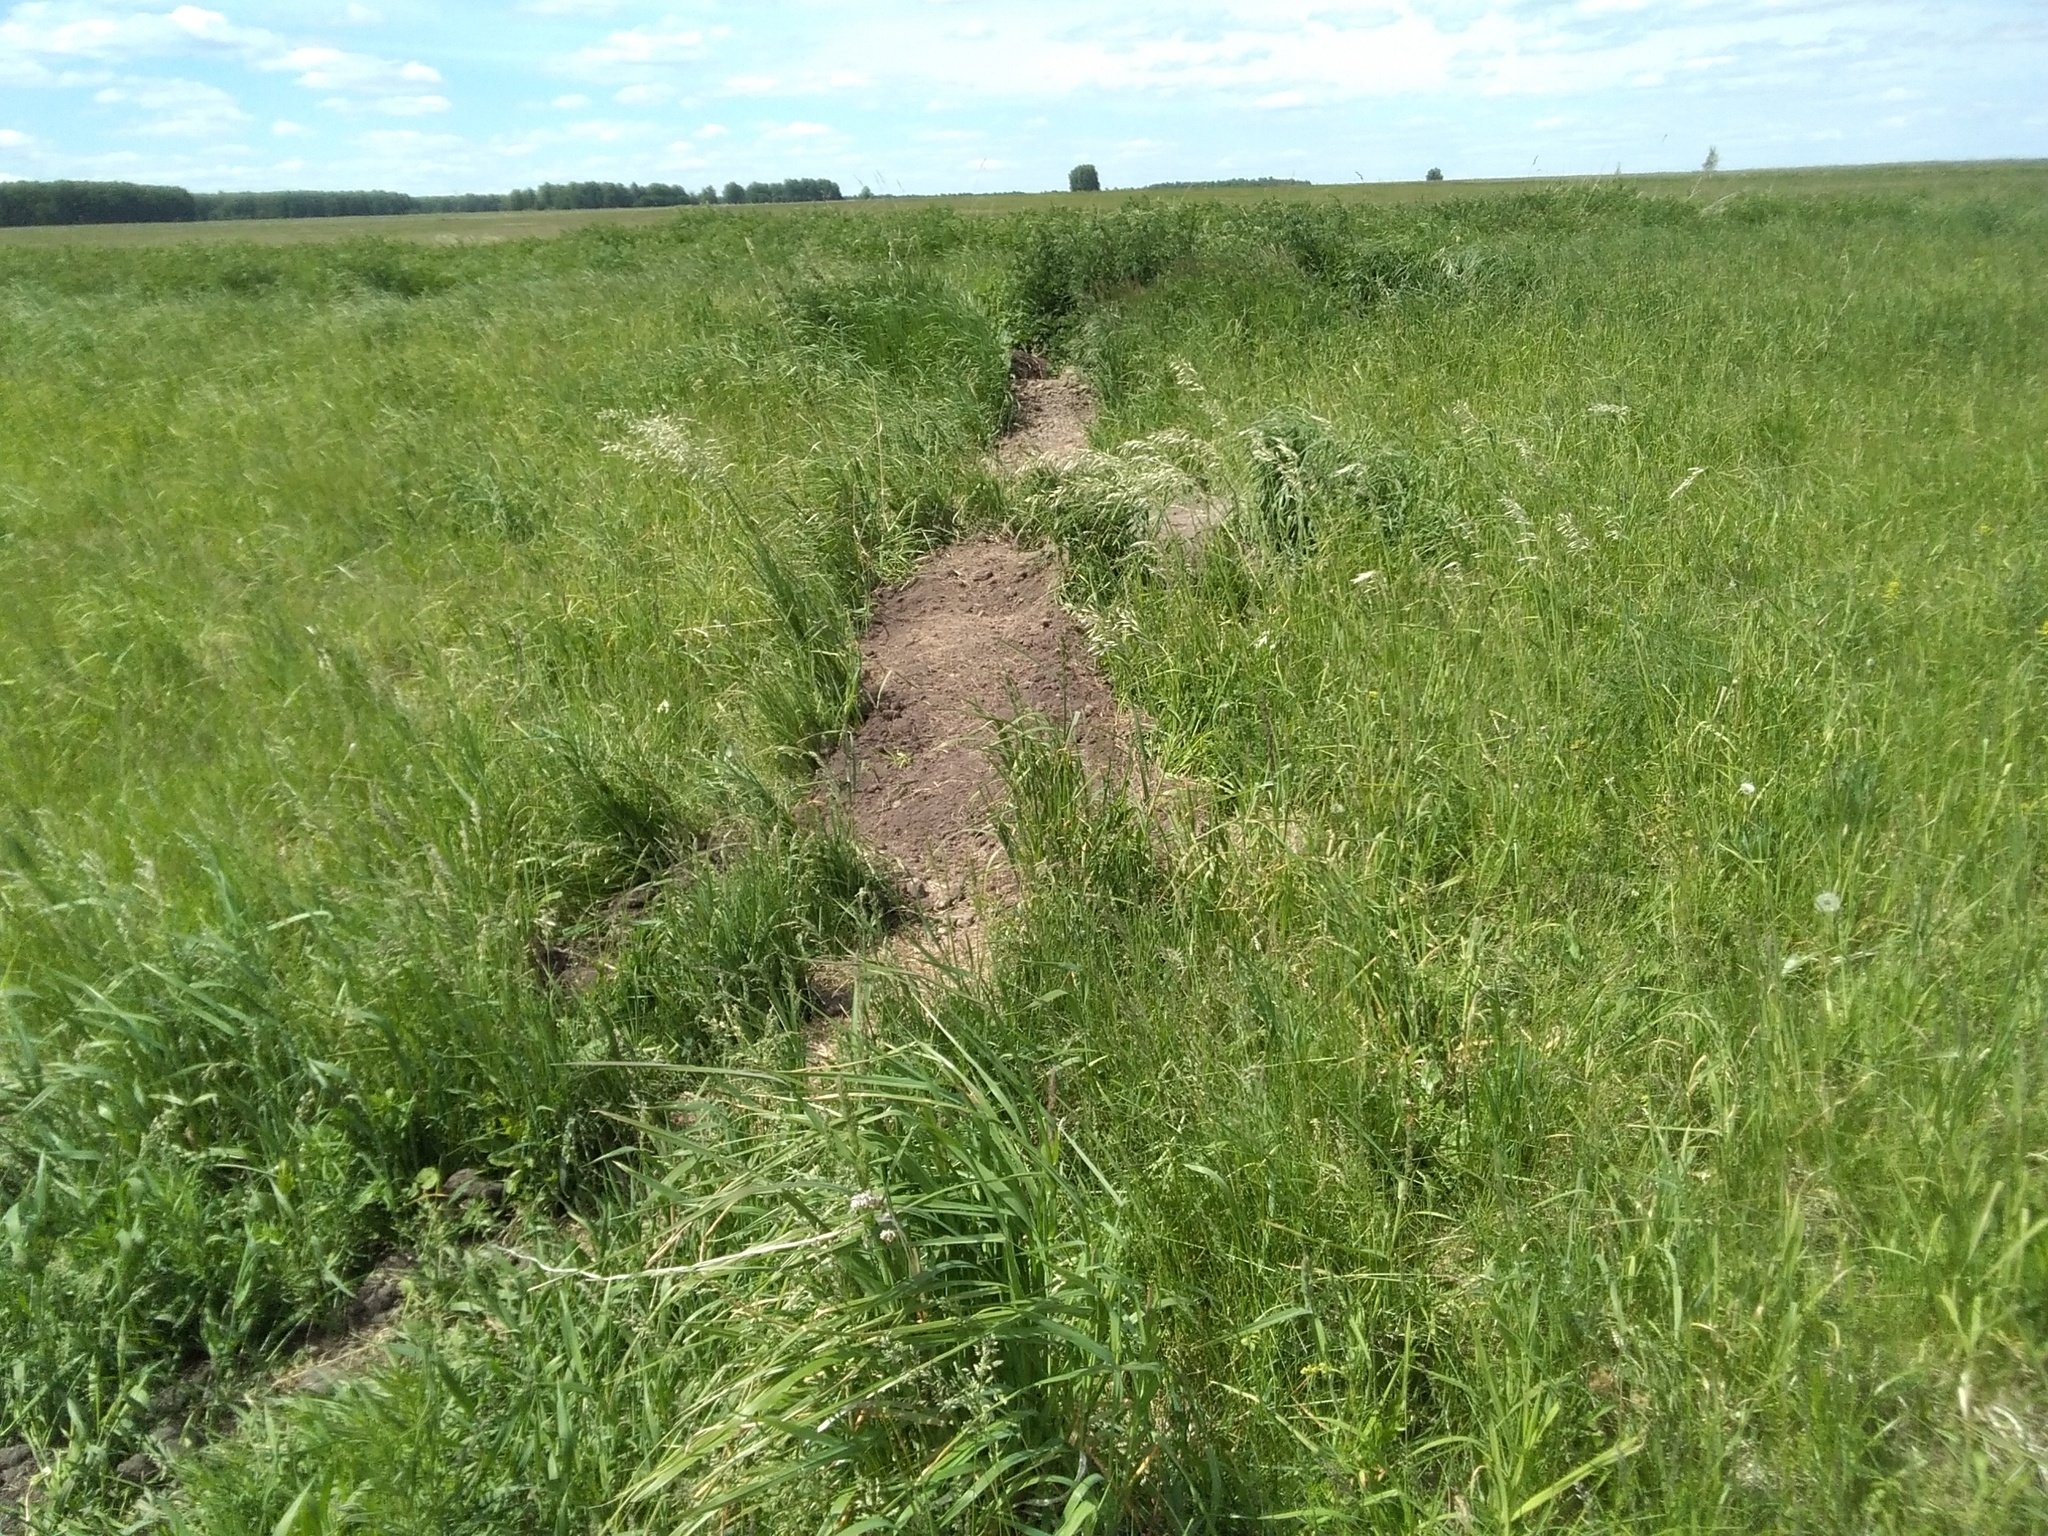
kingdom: Animalia
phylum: Chordata
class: Mammalia
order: Rodentia
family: Sciuridae
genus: Marmota
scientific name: Marmota kastschenkoi
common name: Forest steppe marmot
